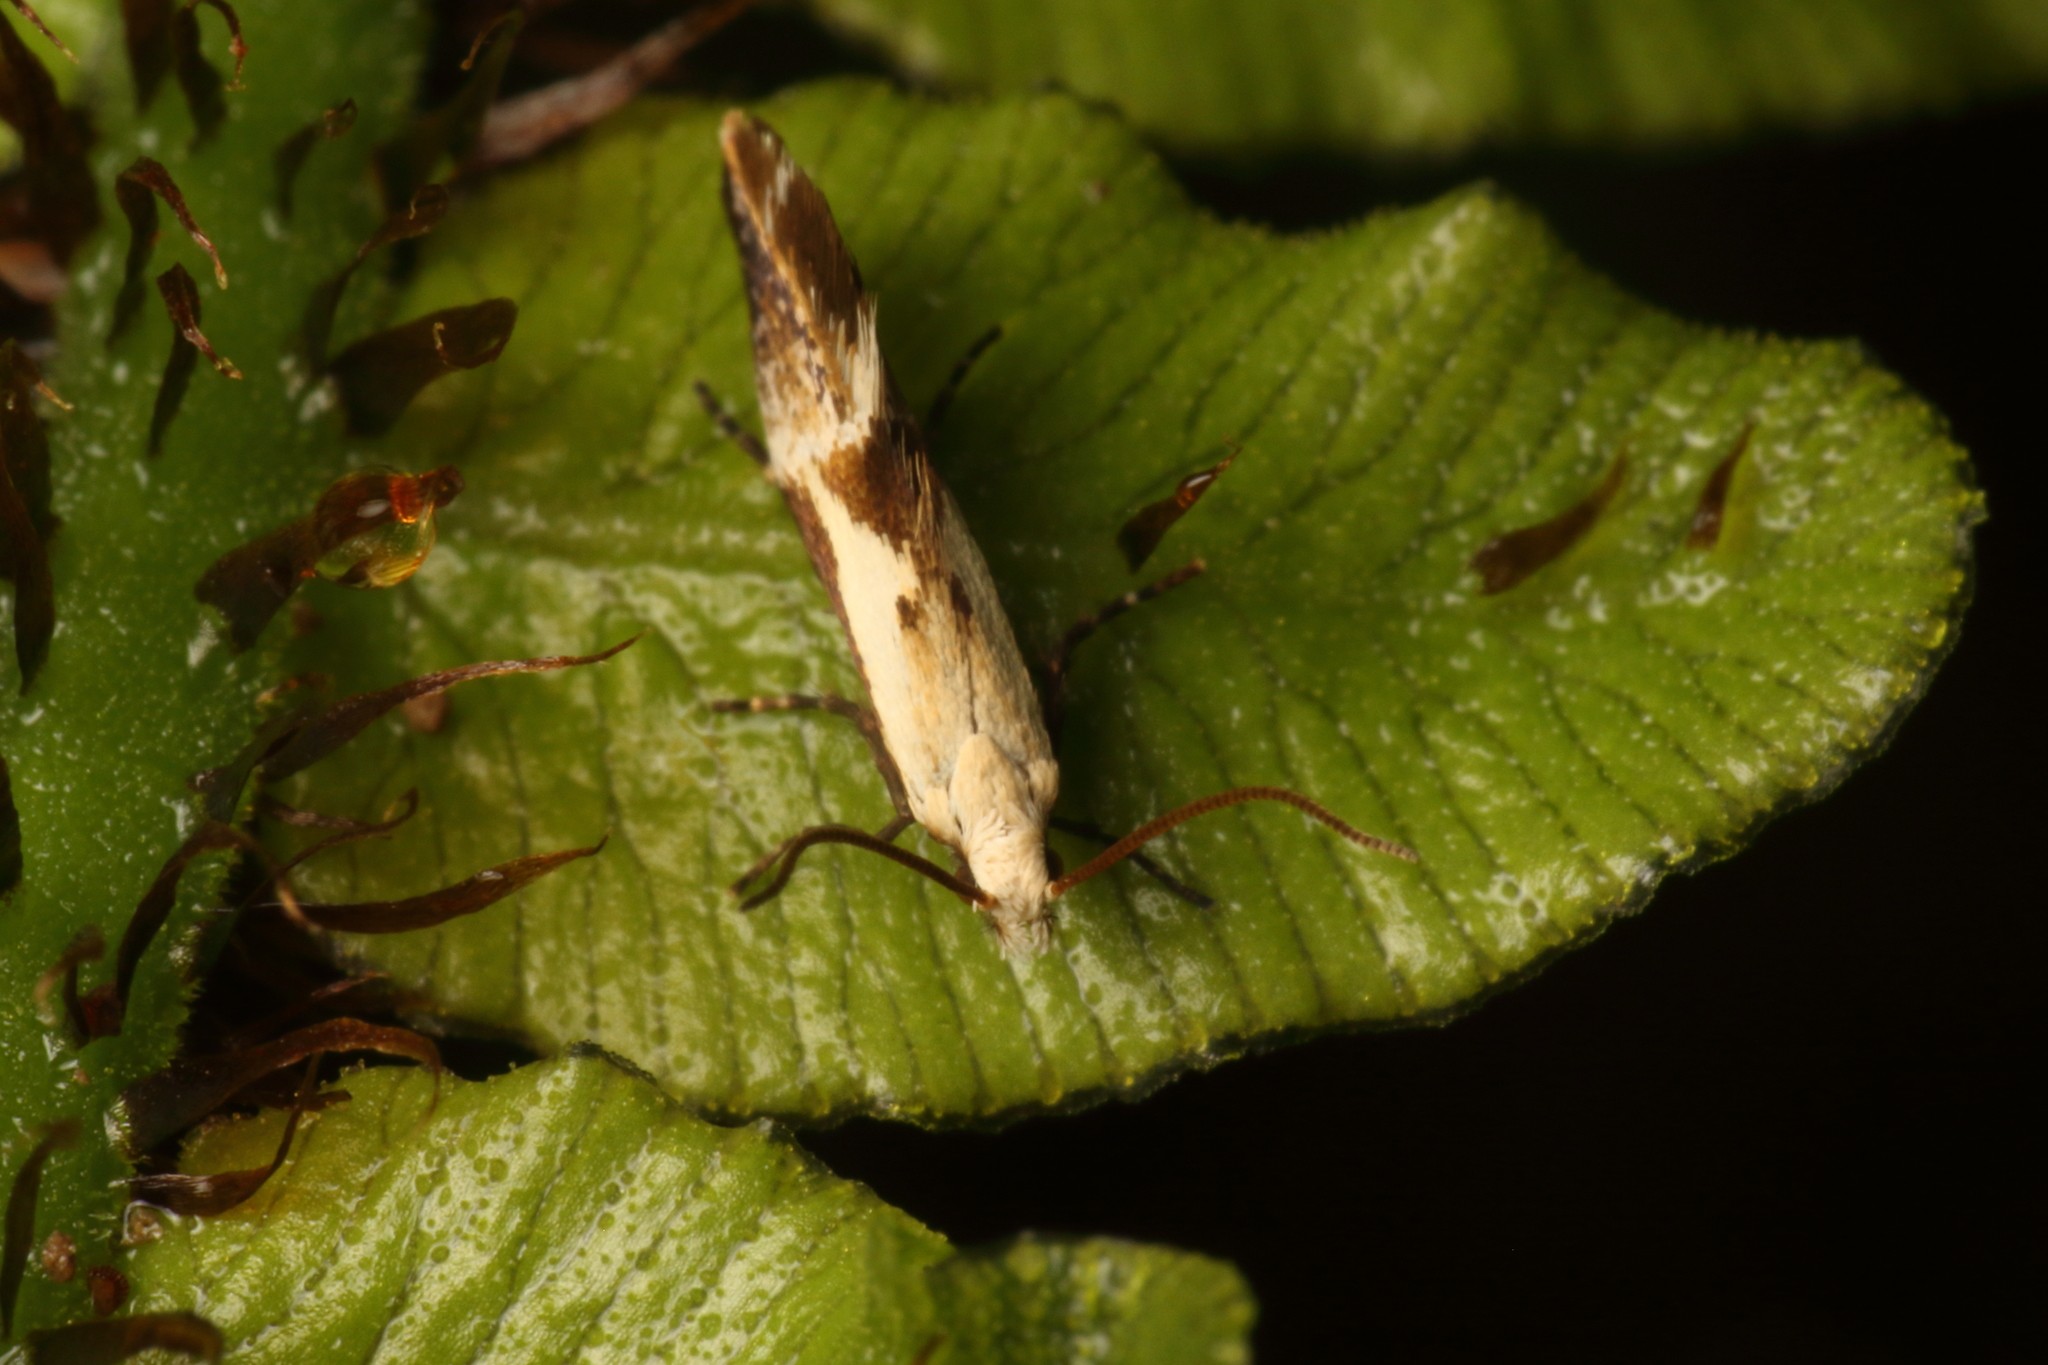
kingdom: Animalia
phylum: Arthropoda
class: Insecta
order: Lepidoptera
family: Mnesarchaeidae
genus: Mnesarchella
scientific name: Mnesarchella fusilella
